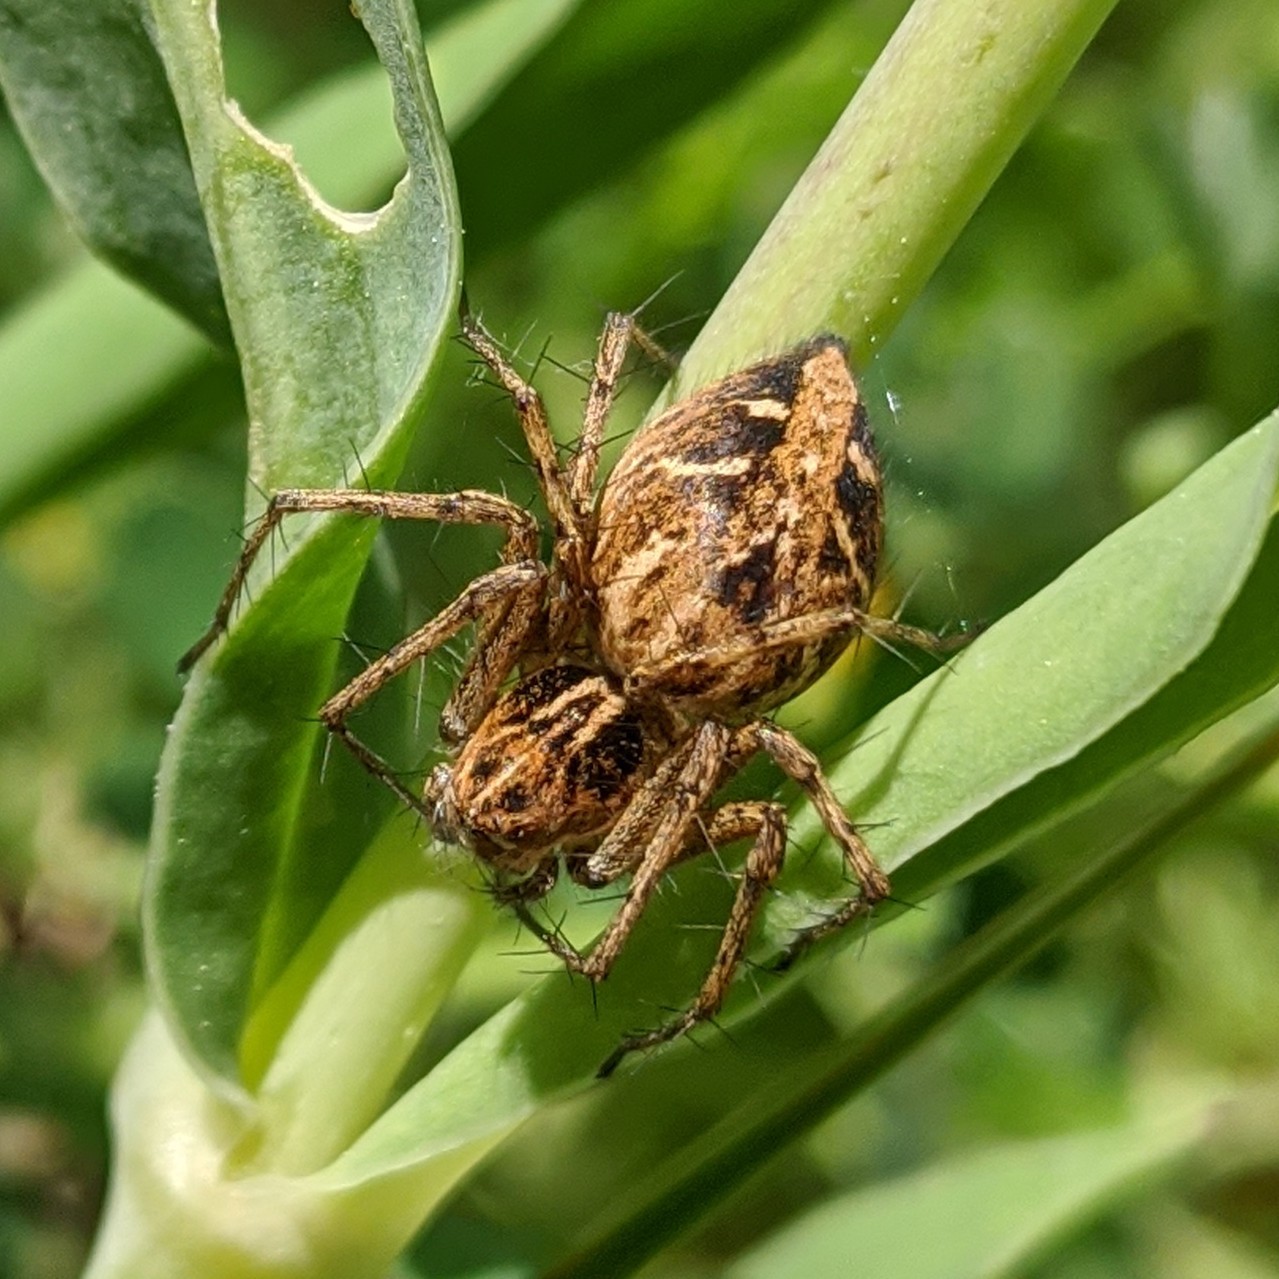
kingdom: Animalia
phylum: Arthropoda
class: Arachnida
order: Araneae
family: Oxyopidae
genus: Oxyopes
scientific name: Oxyopes heterophthalmus
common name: Lynx spider
